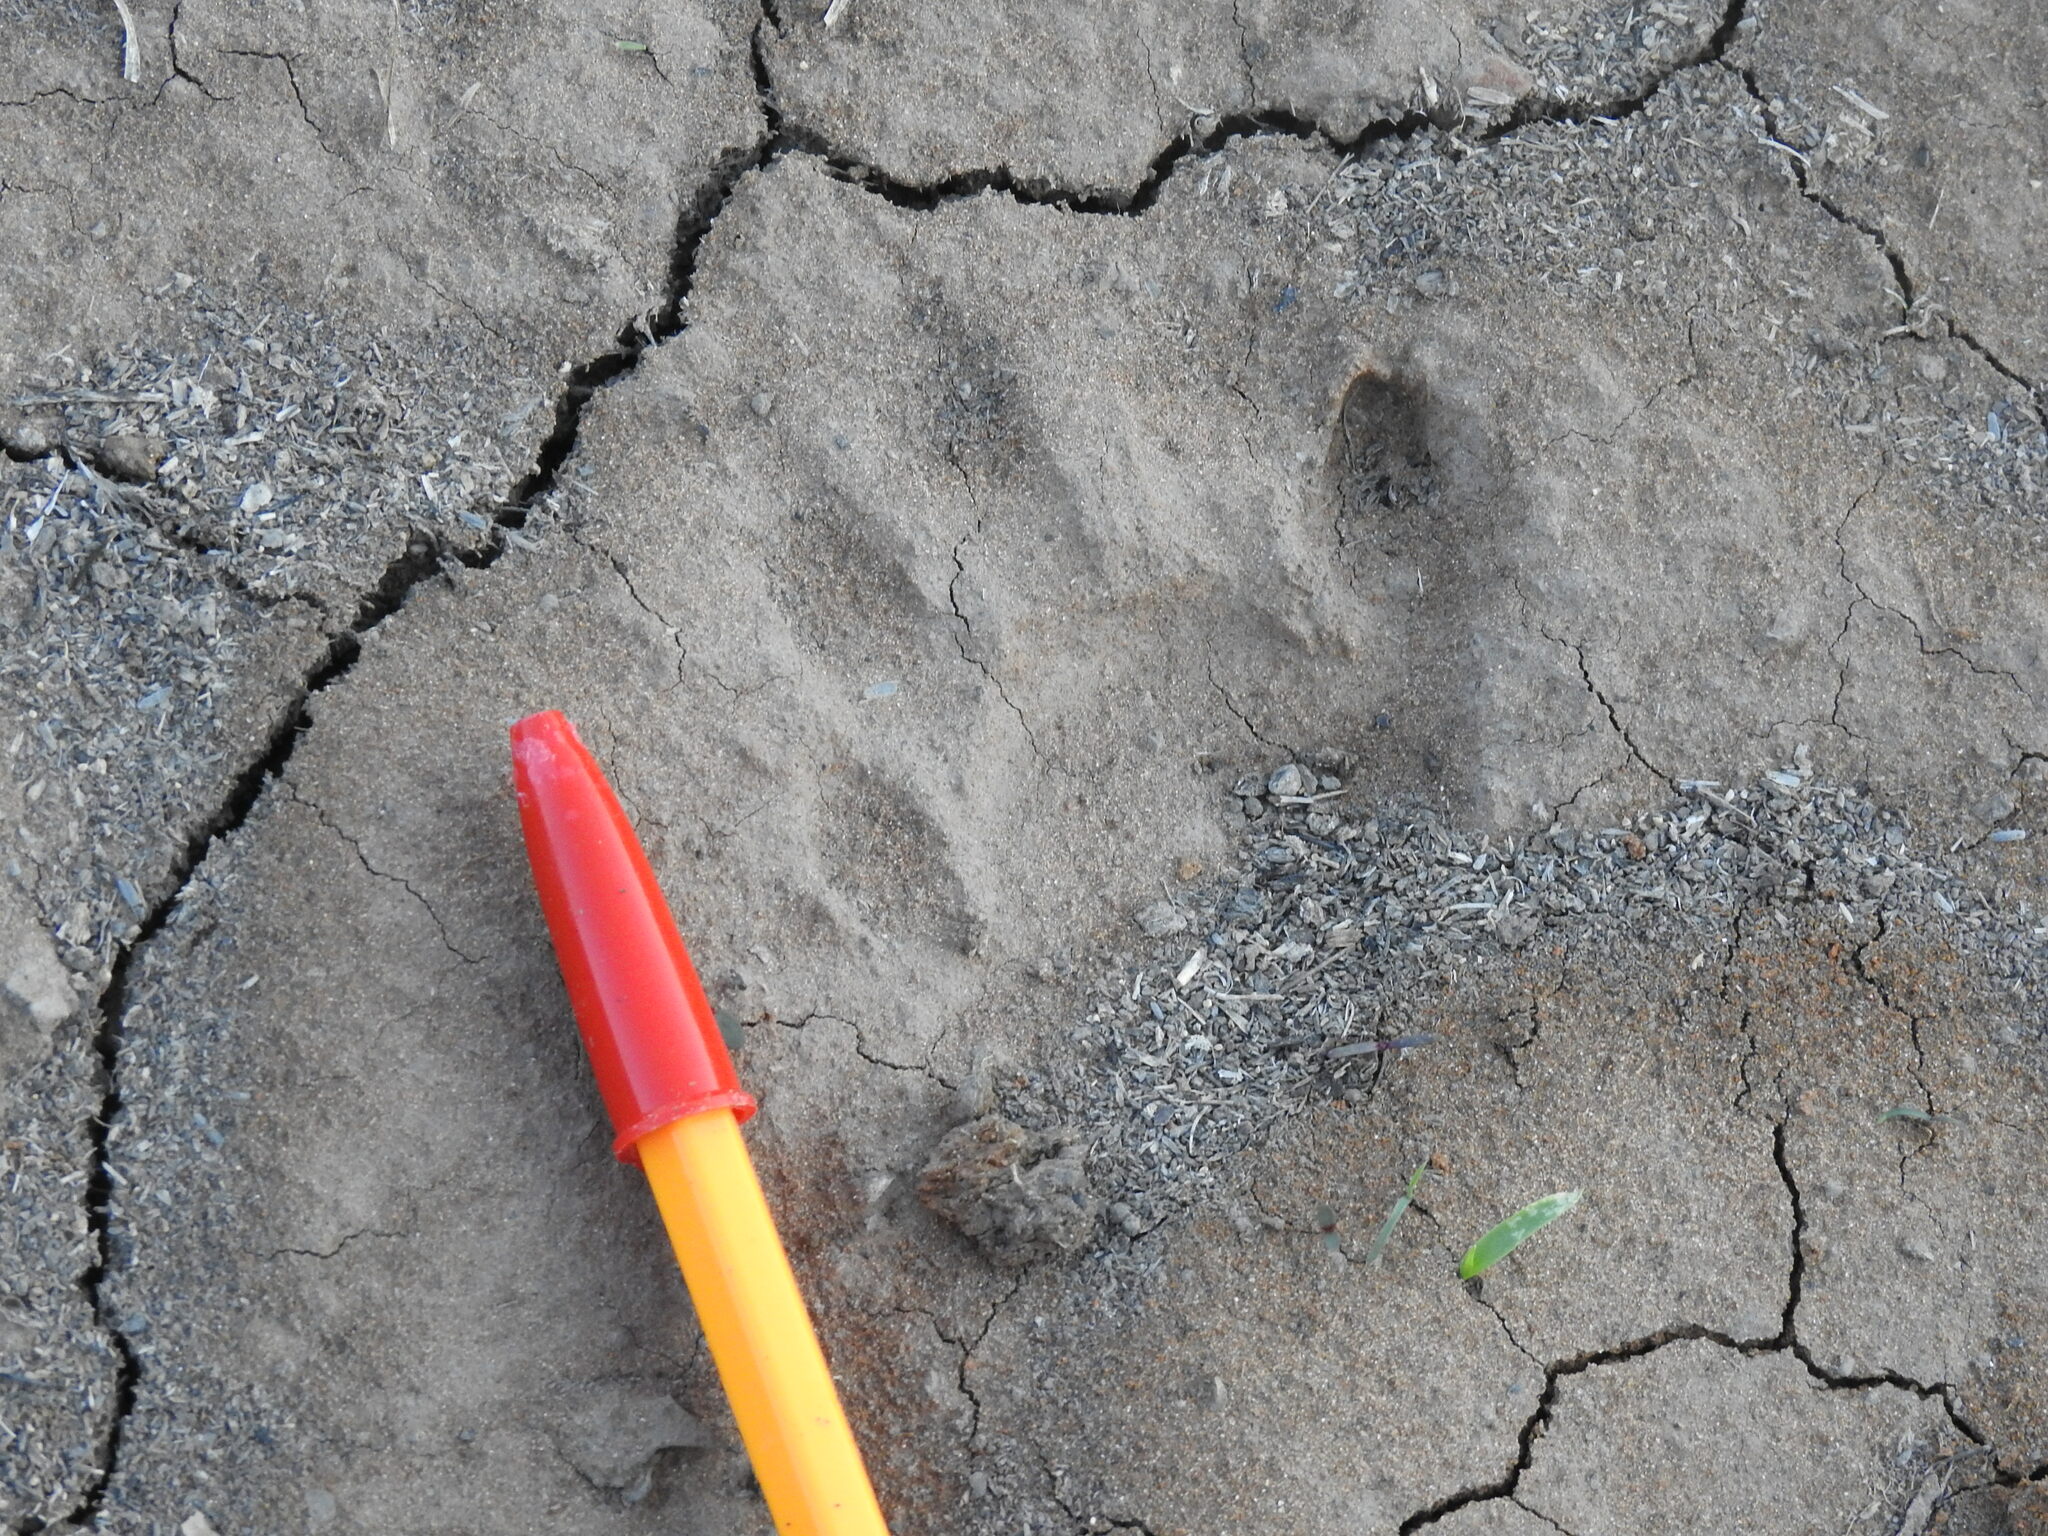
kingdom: Animalia
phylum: Chordata
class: Mammalia
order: Carnivora
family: Procyonidae
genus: Procyon
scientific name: Procyon lotor
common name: Raccoon
